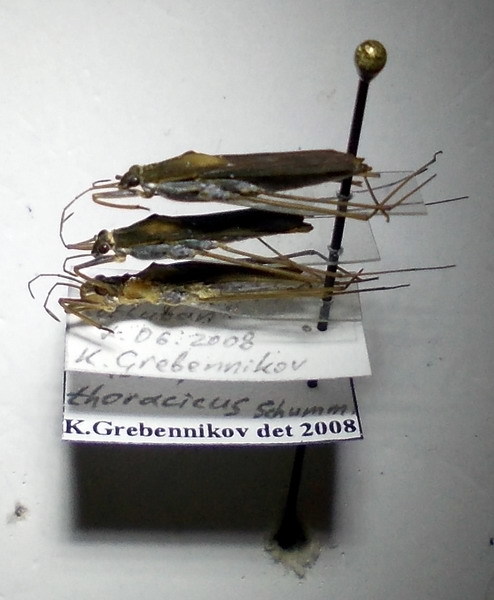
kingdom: Animalia
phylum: Arthropoda
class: Insecta
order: Hemiptera
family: Gerridae
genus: Gerris
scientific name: Gerris thoracicus
